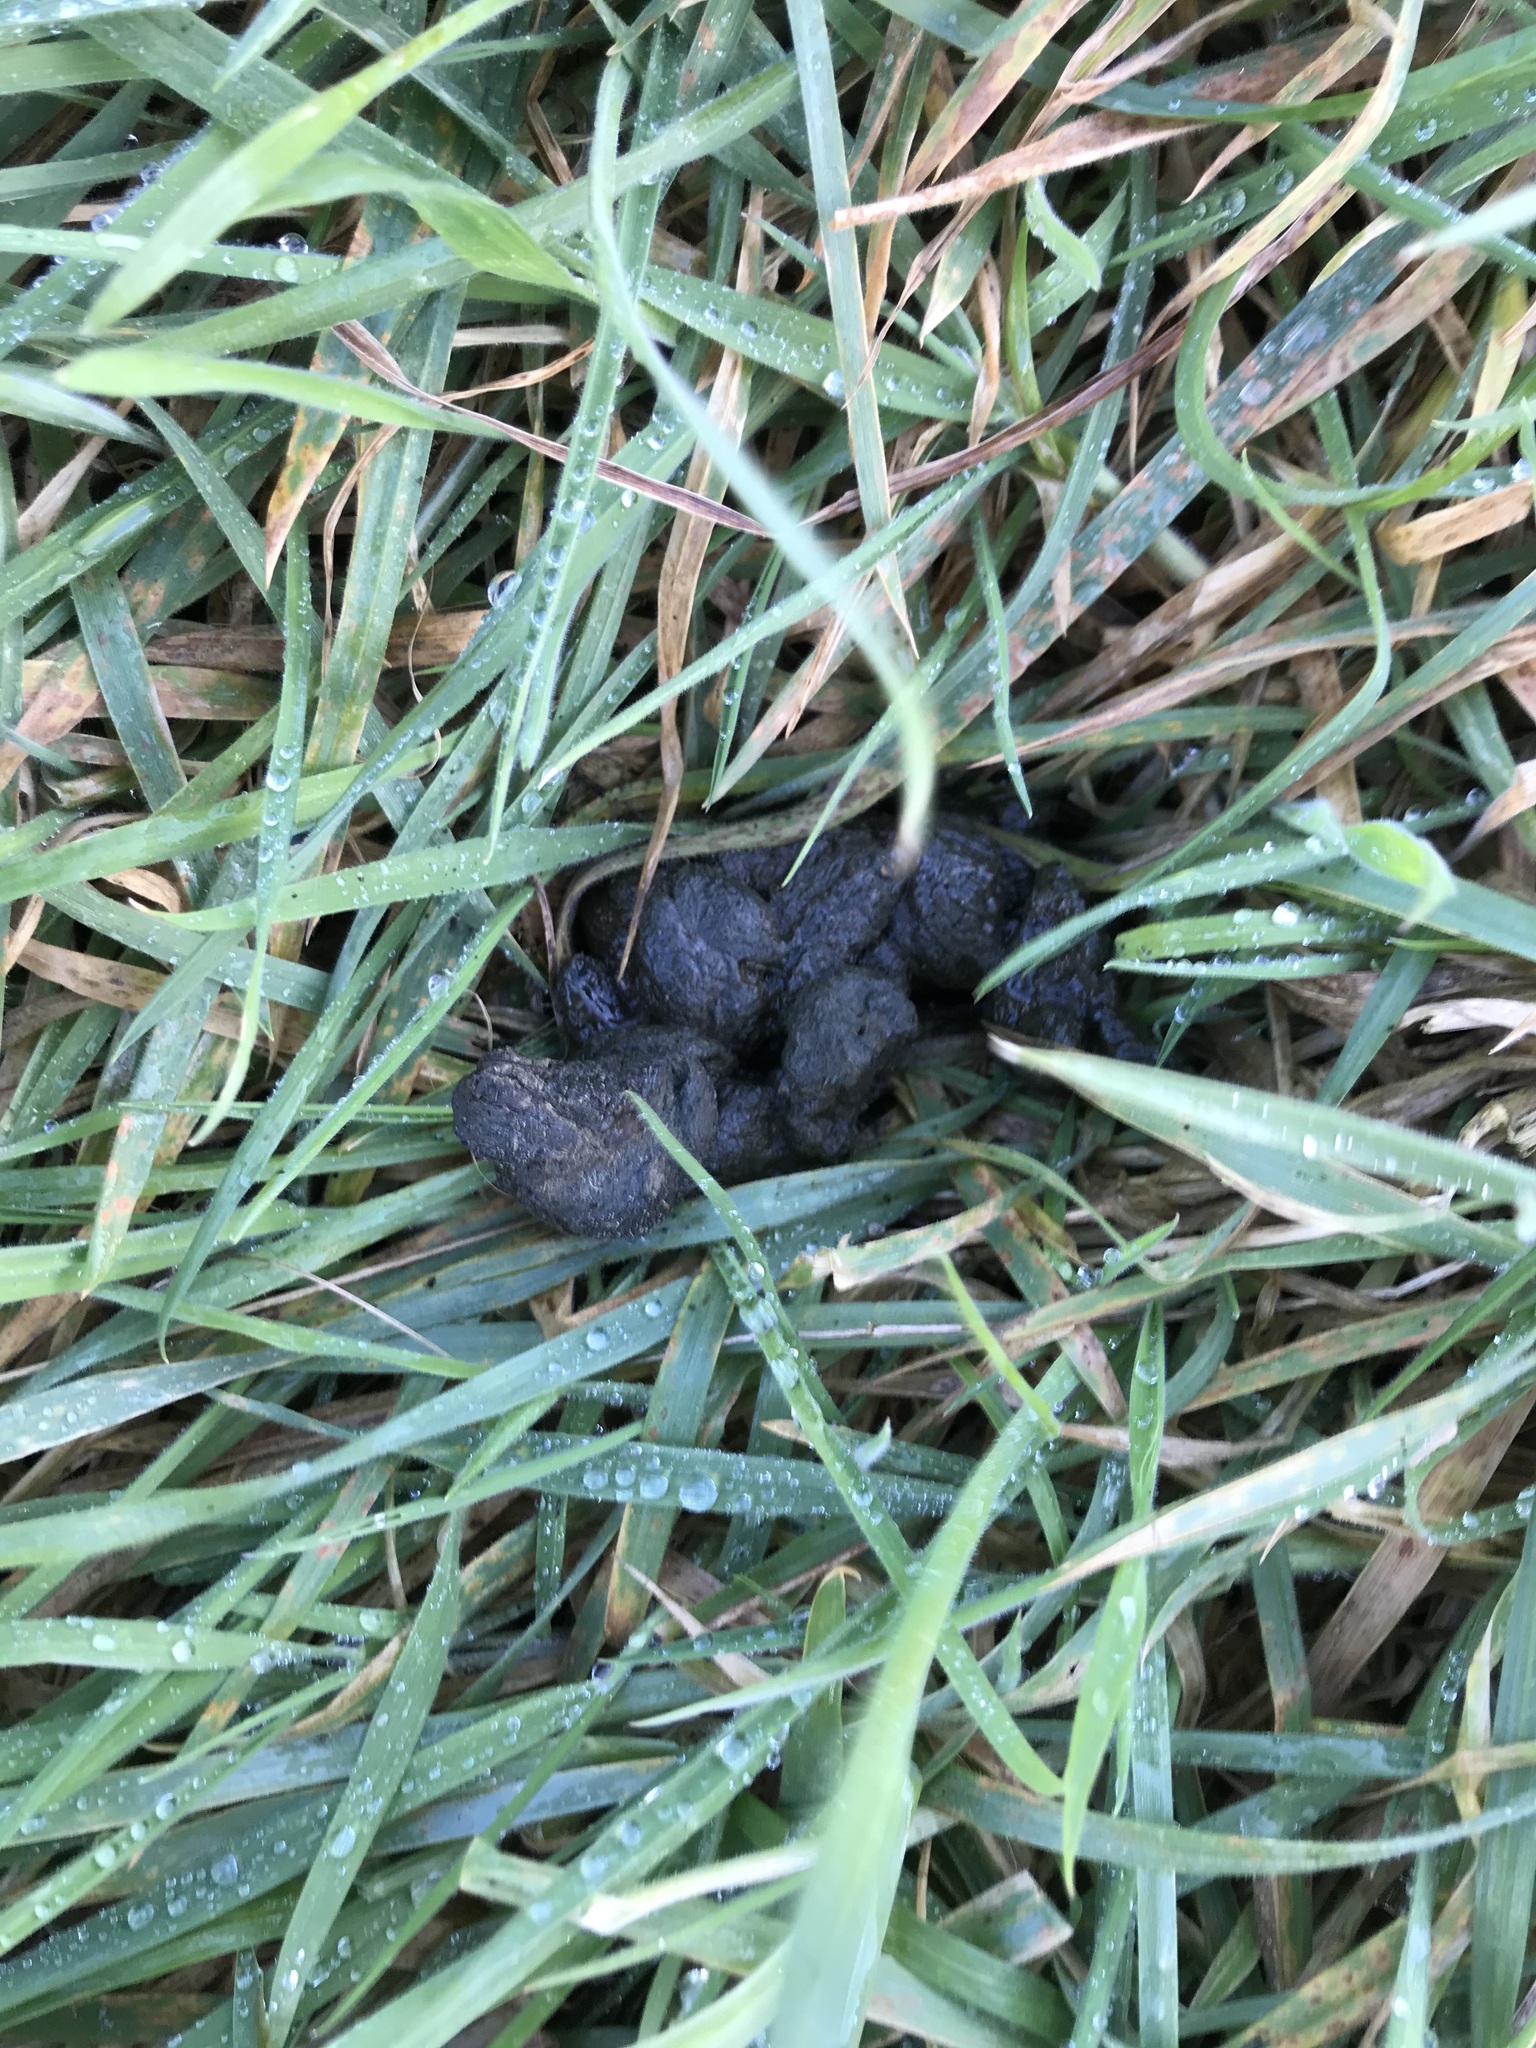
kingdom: Animalia
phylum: Chordata
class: Mammalia
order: Carnivora
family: Felidae
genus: Felis
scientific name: Felis catus
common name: Domestic cat
